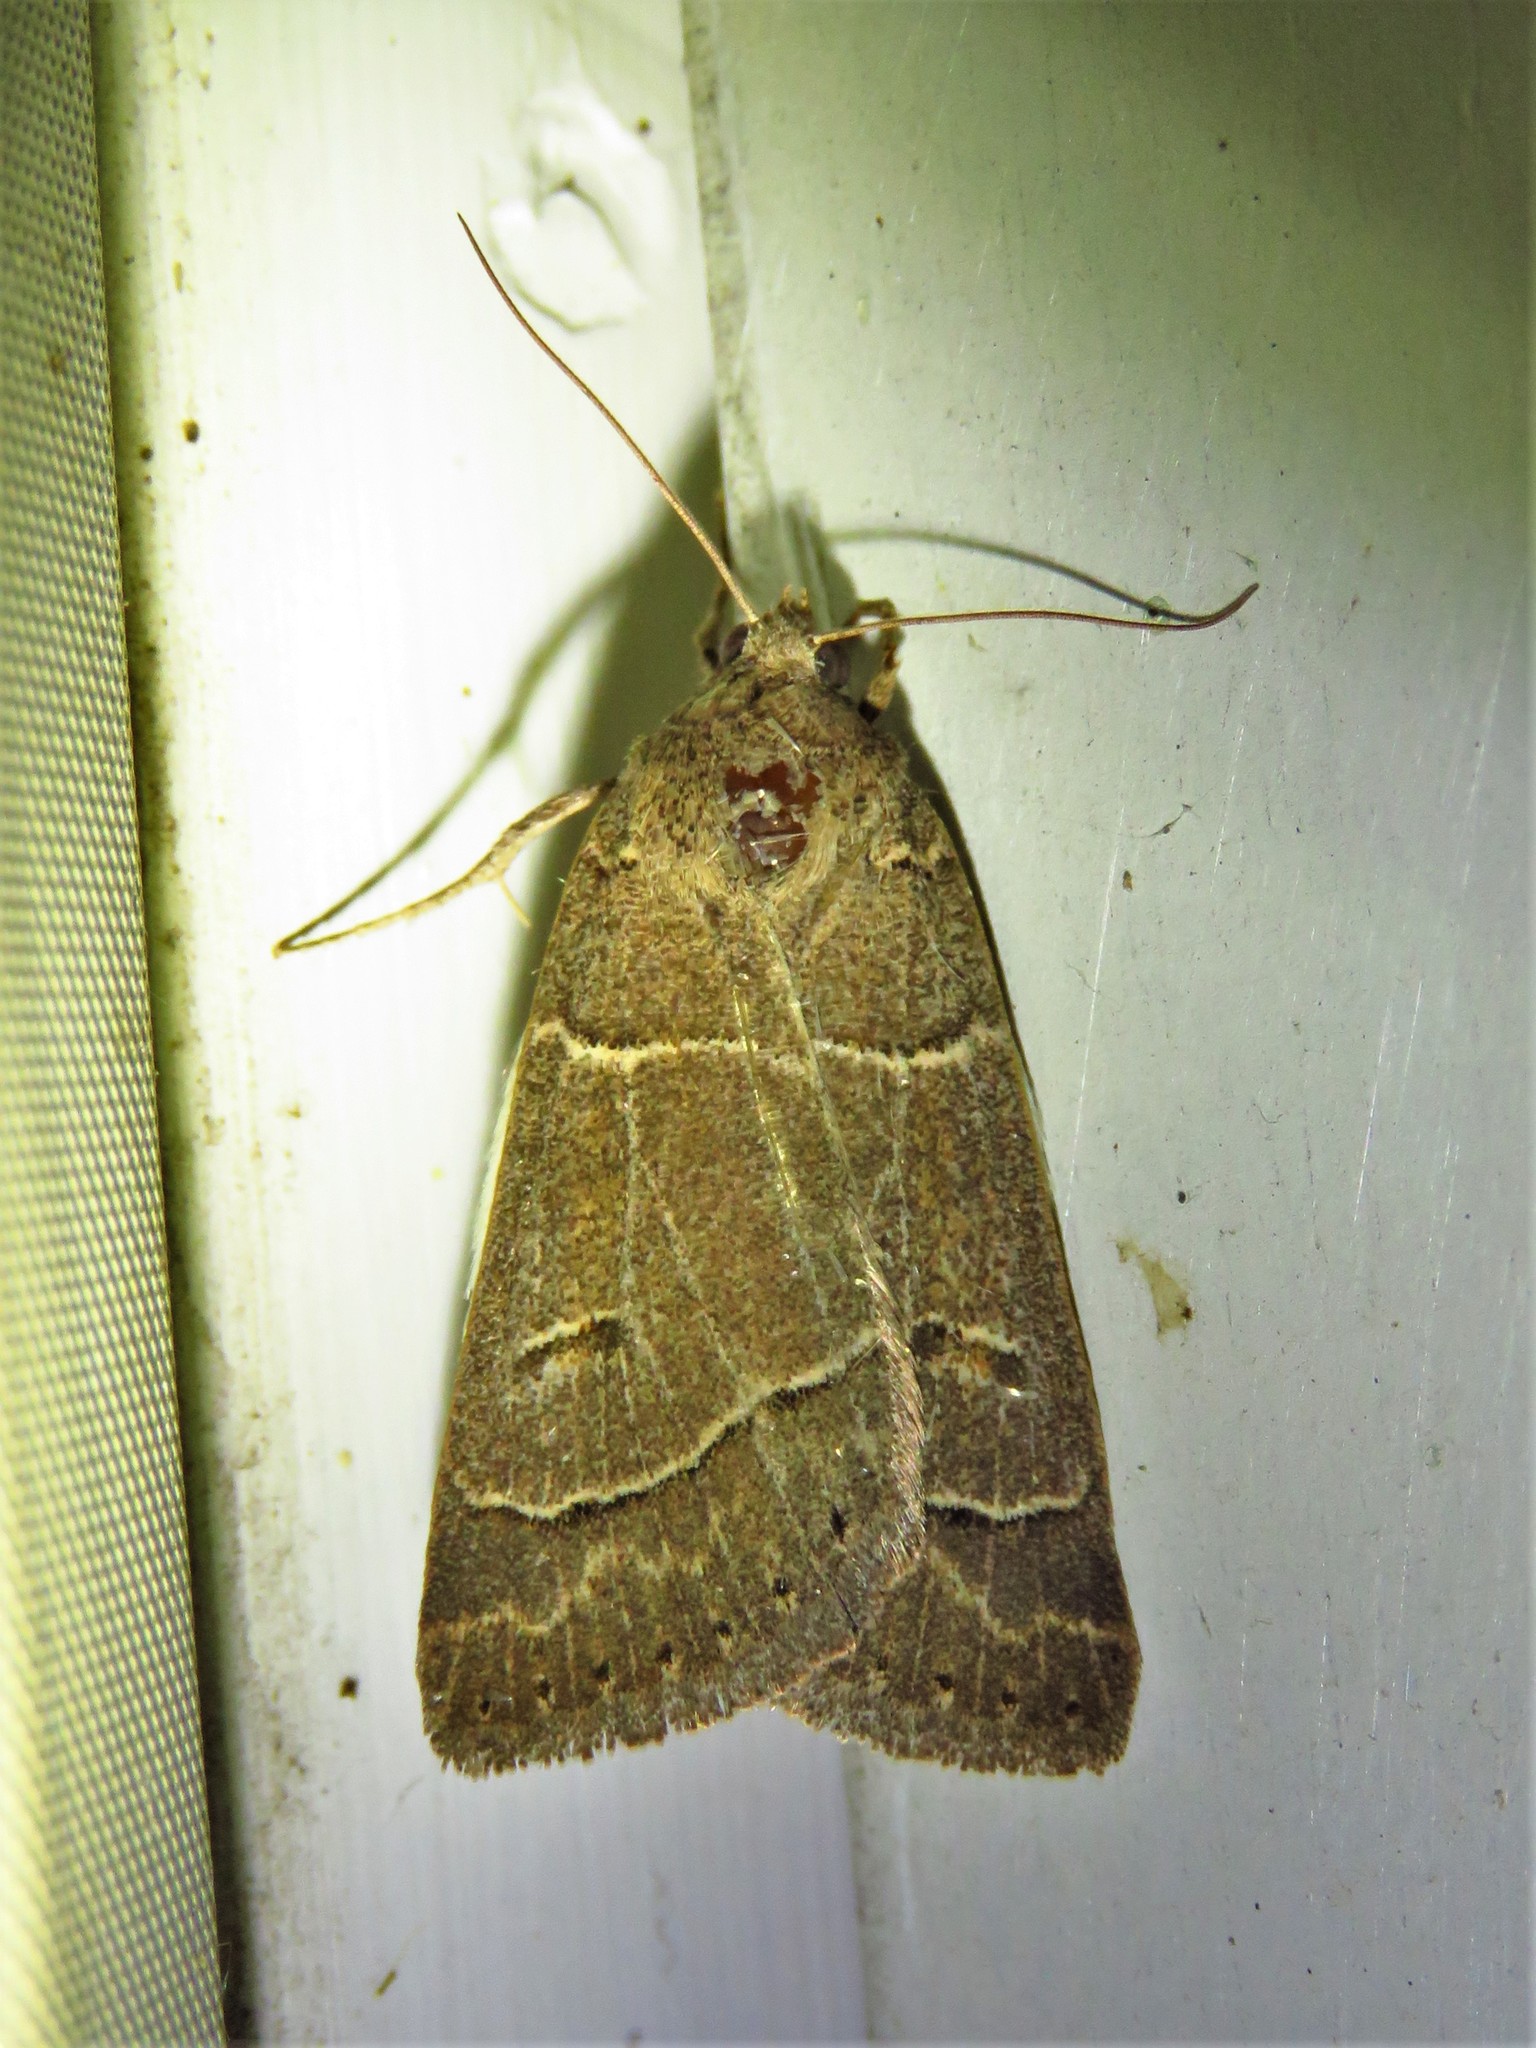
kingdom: Animalia
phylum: Arthropoda
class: Insecta
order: Lepidoptera
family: Erebidae
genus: Phoberia
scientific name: Phoberia atomaris
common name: Common oak moth
